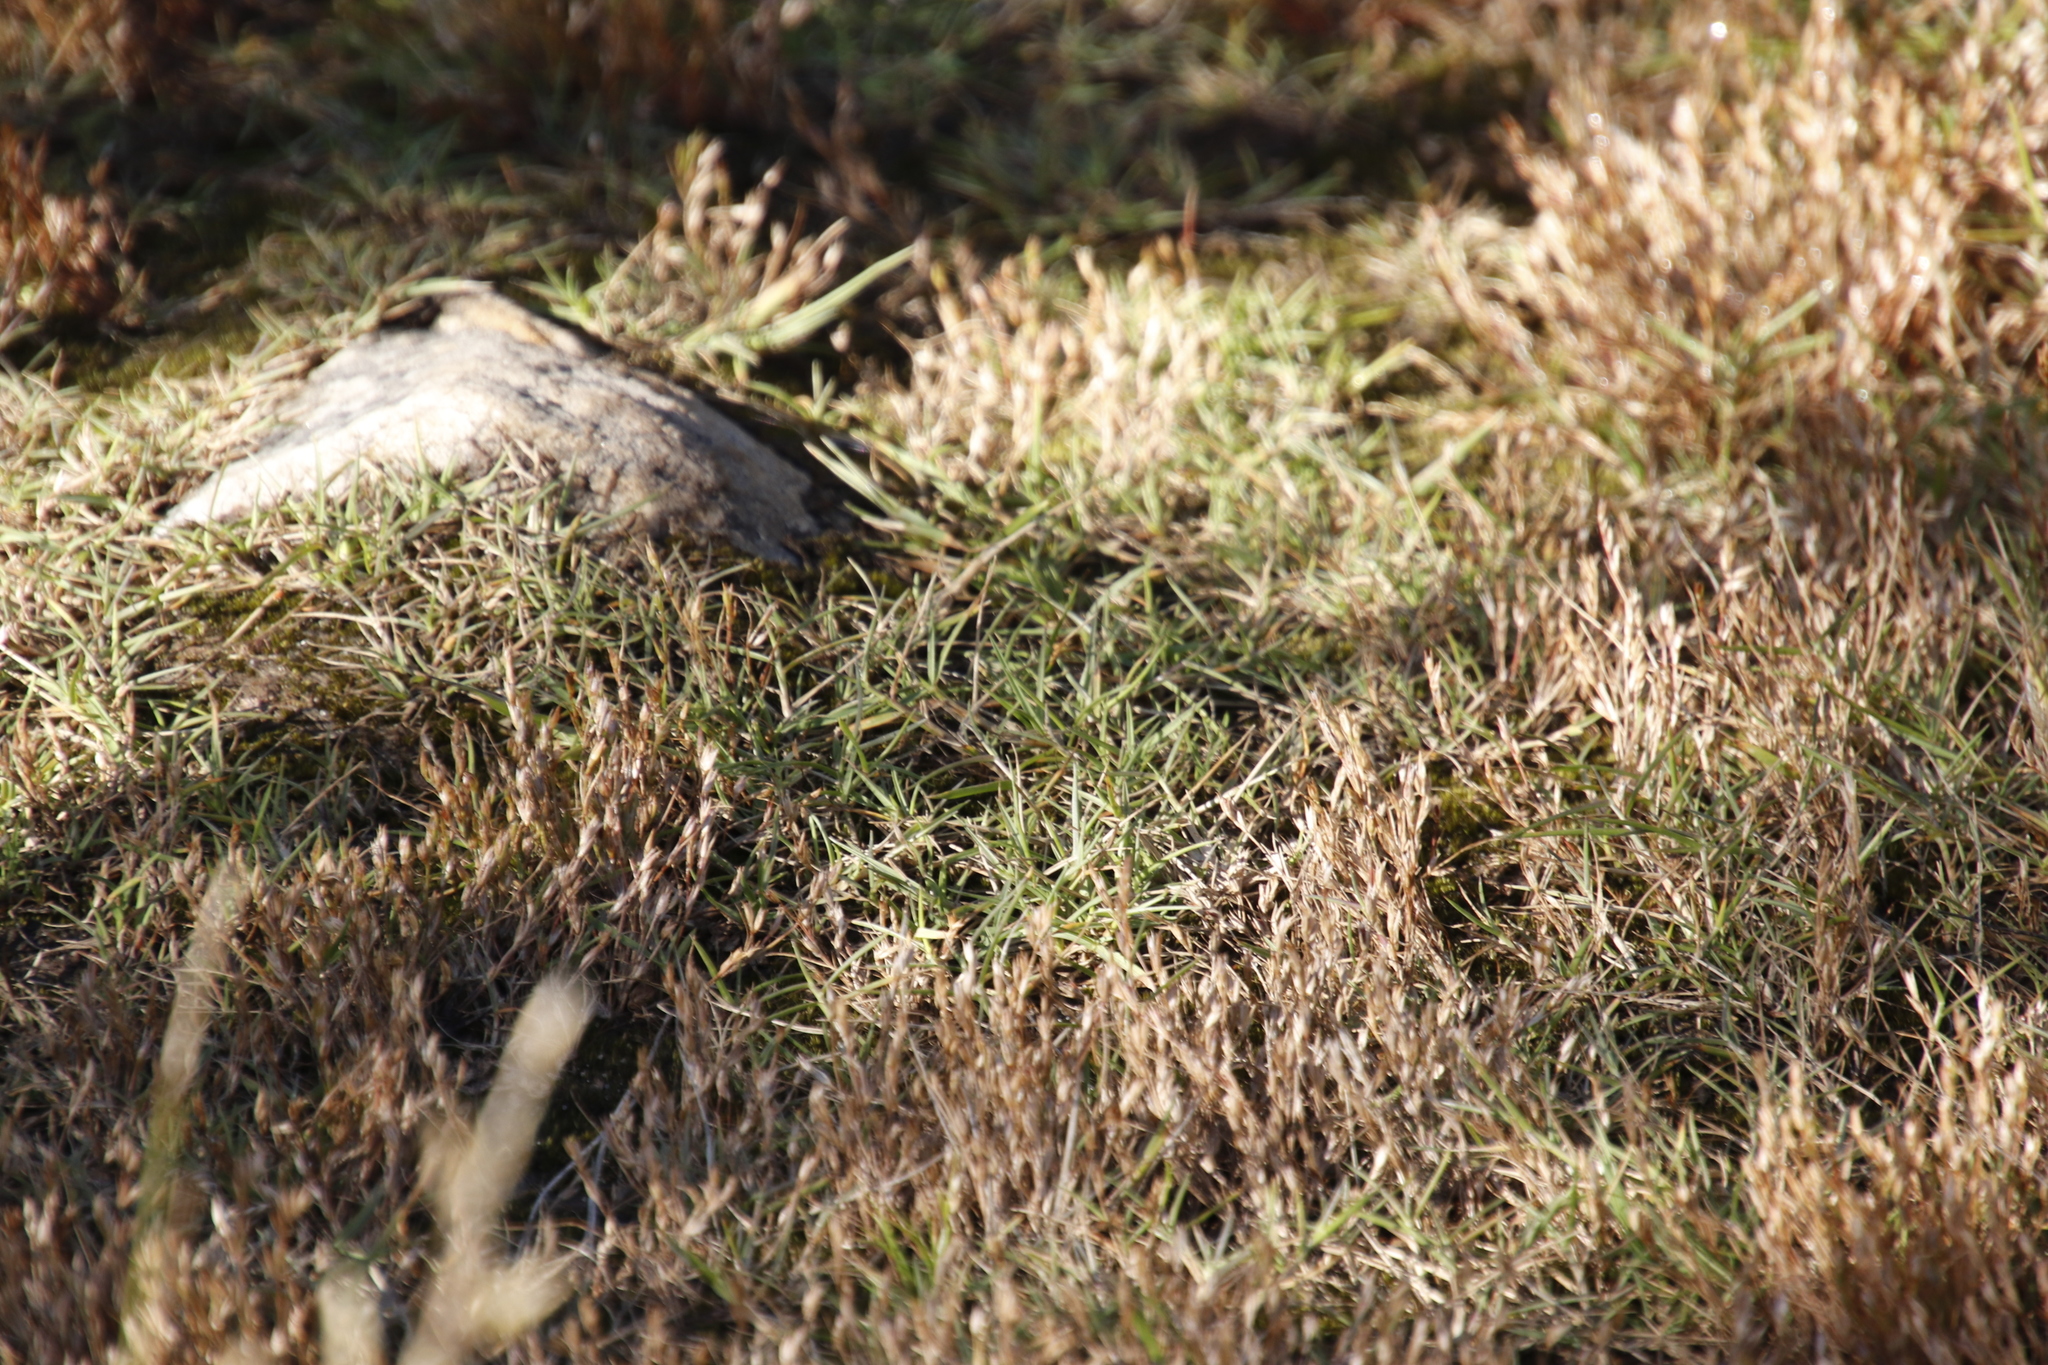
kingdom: Plantae
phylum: Tracheophyta
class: Liliopsida
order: Poales
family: Poaceae
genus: Cynodon
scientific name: Cynodon dactylon
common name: Bermuda grass
